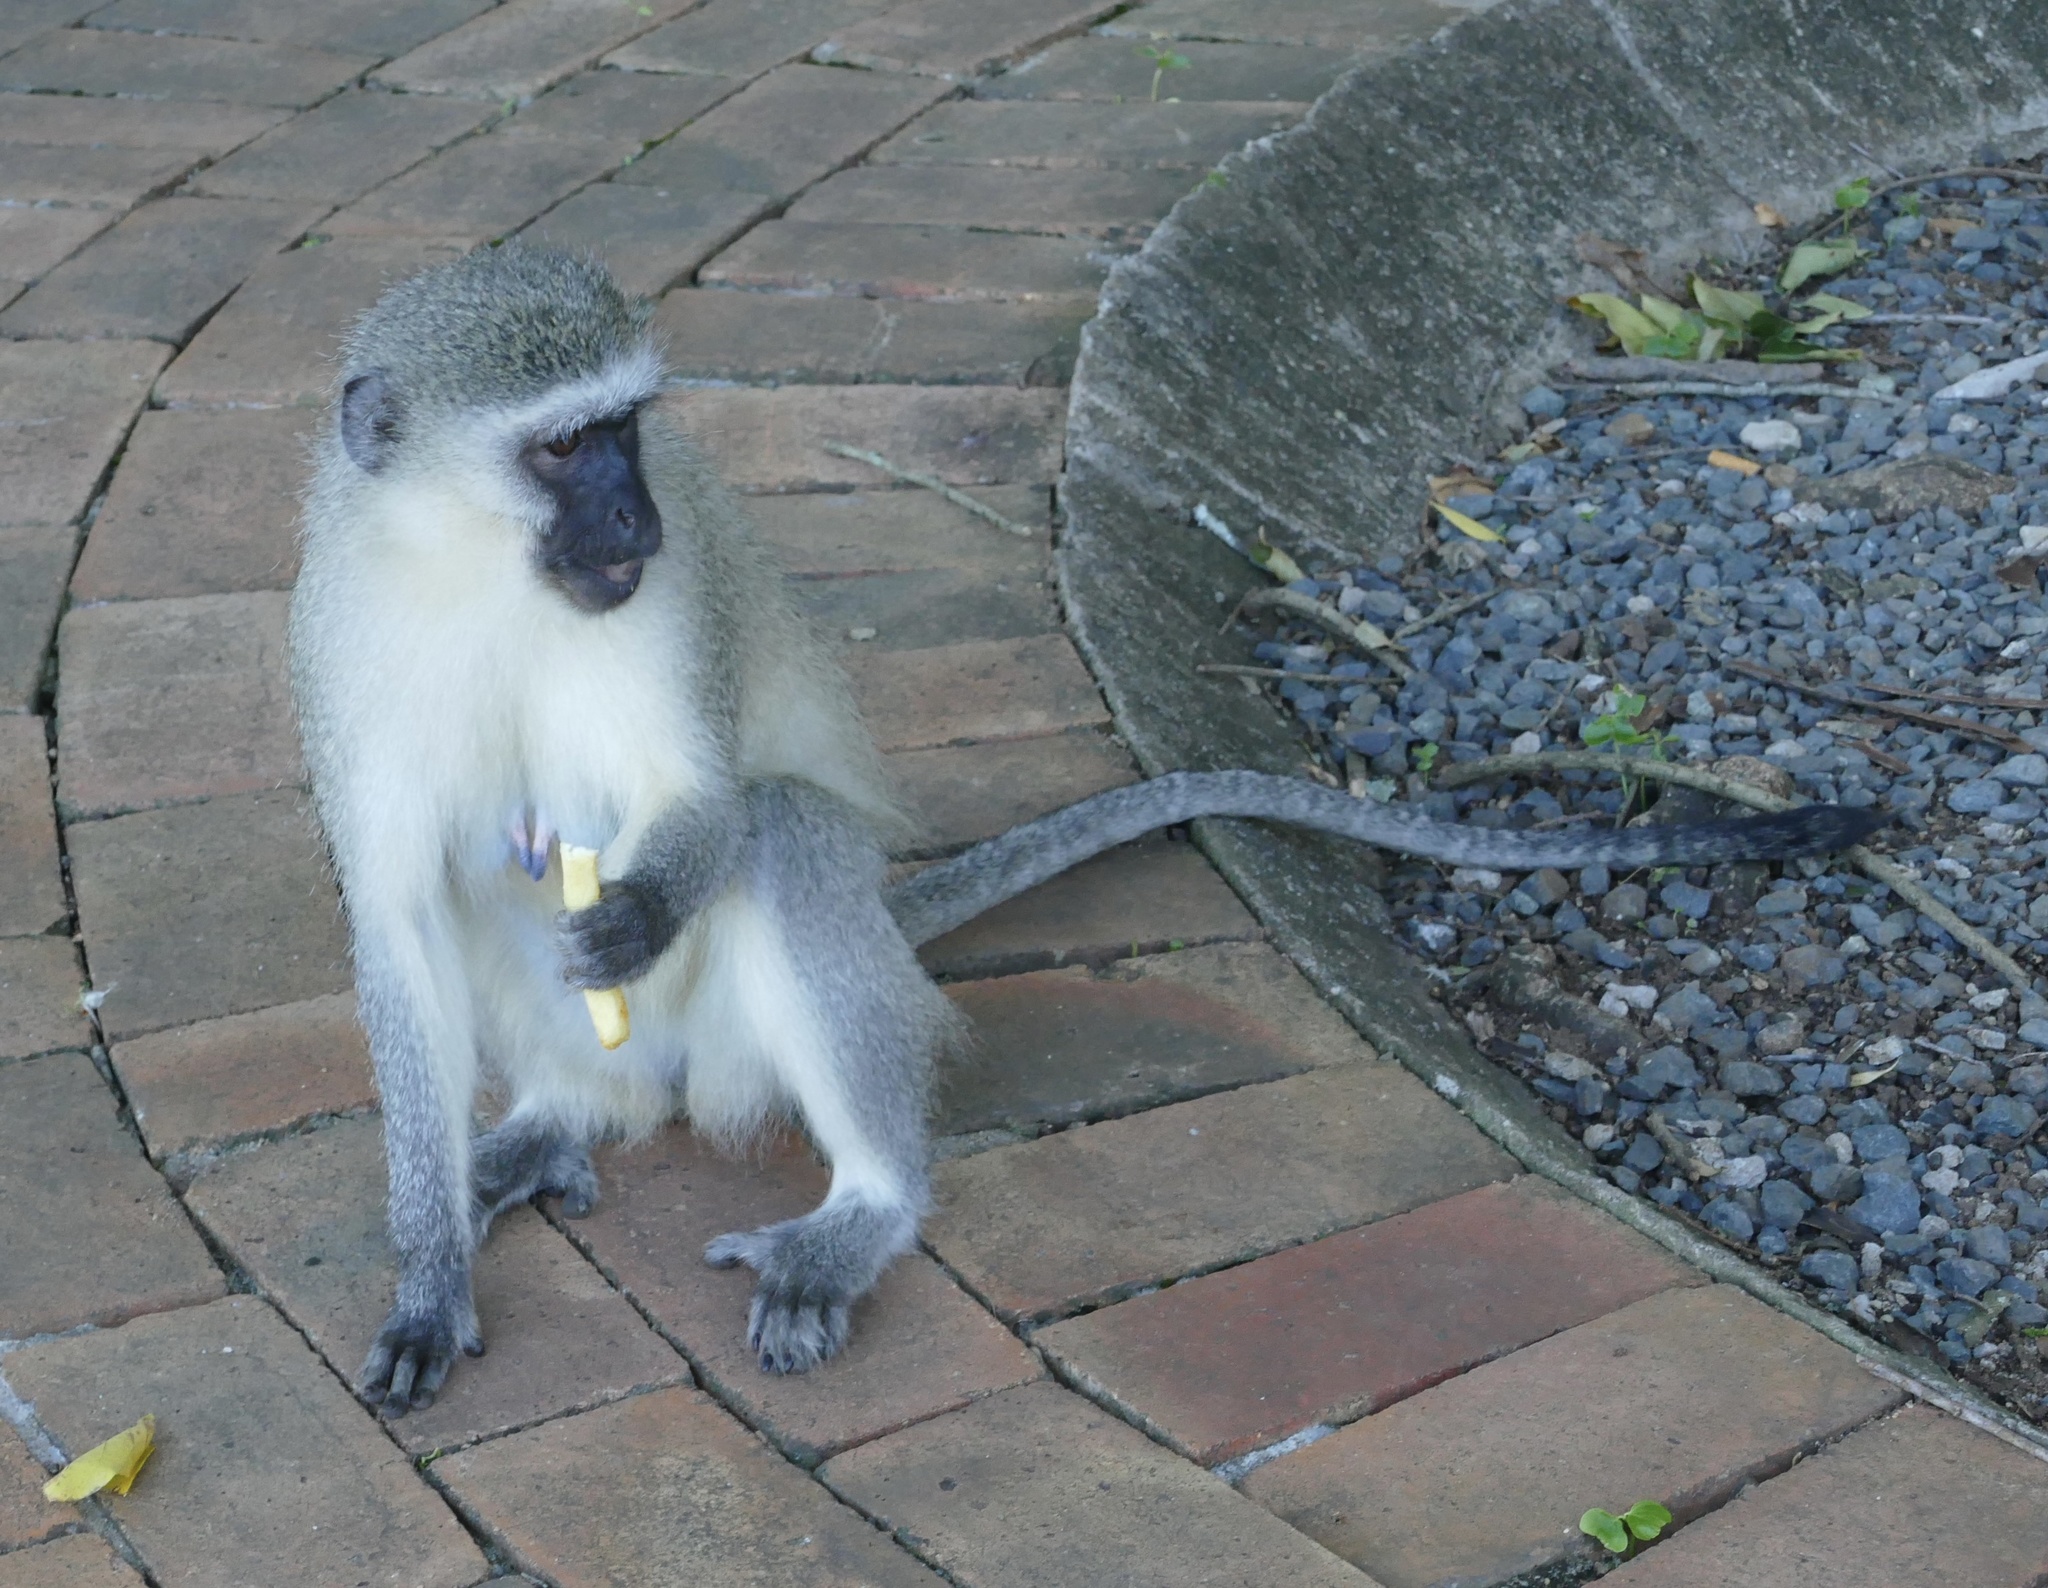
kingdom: Animalia
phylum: Chordata
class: Mammalia
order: Primates
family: Cercopithecidae
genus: Chlorocebus
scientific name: Chlorocebus pygerythrus
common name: Vervet monkey
